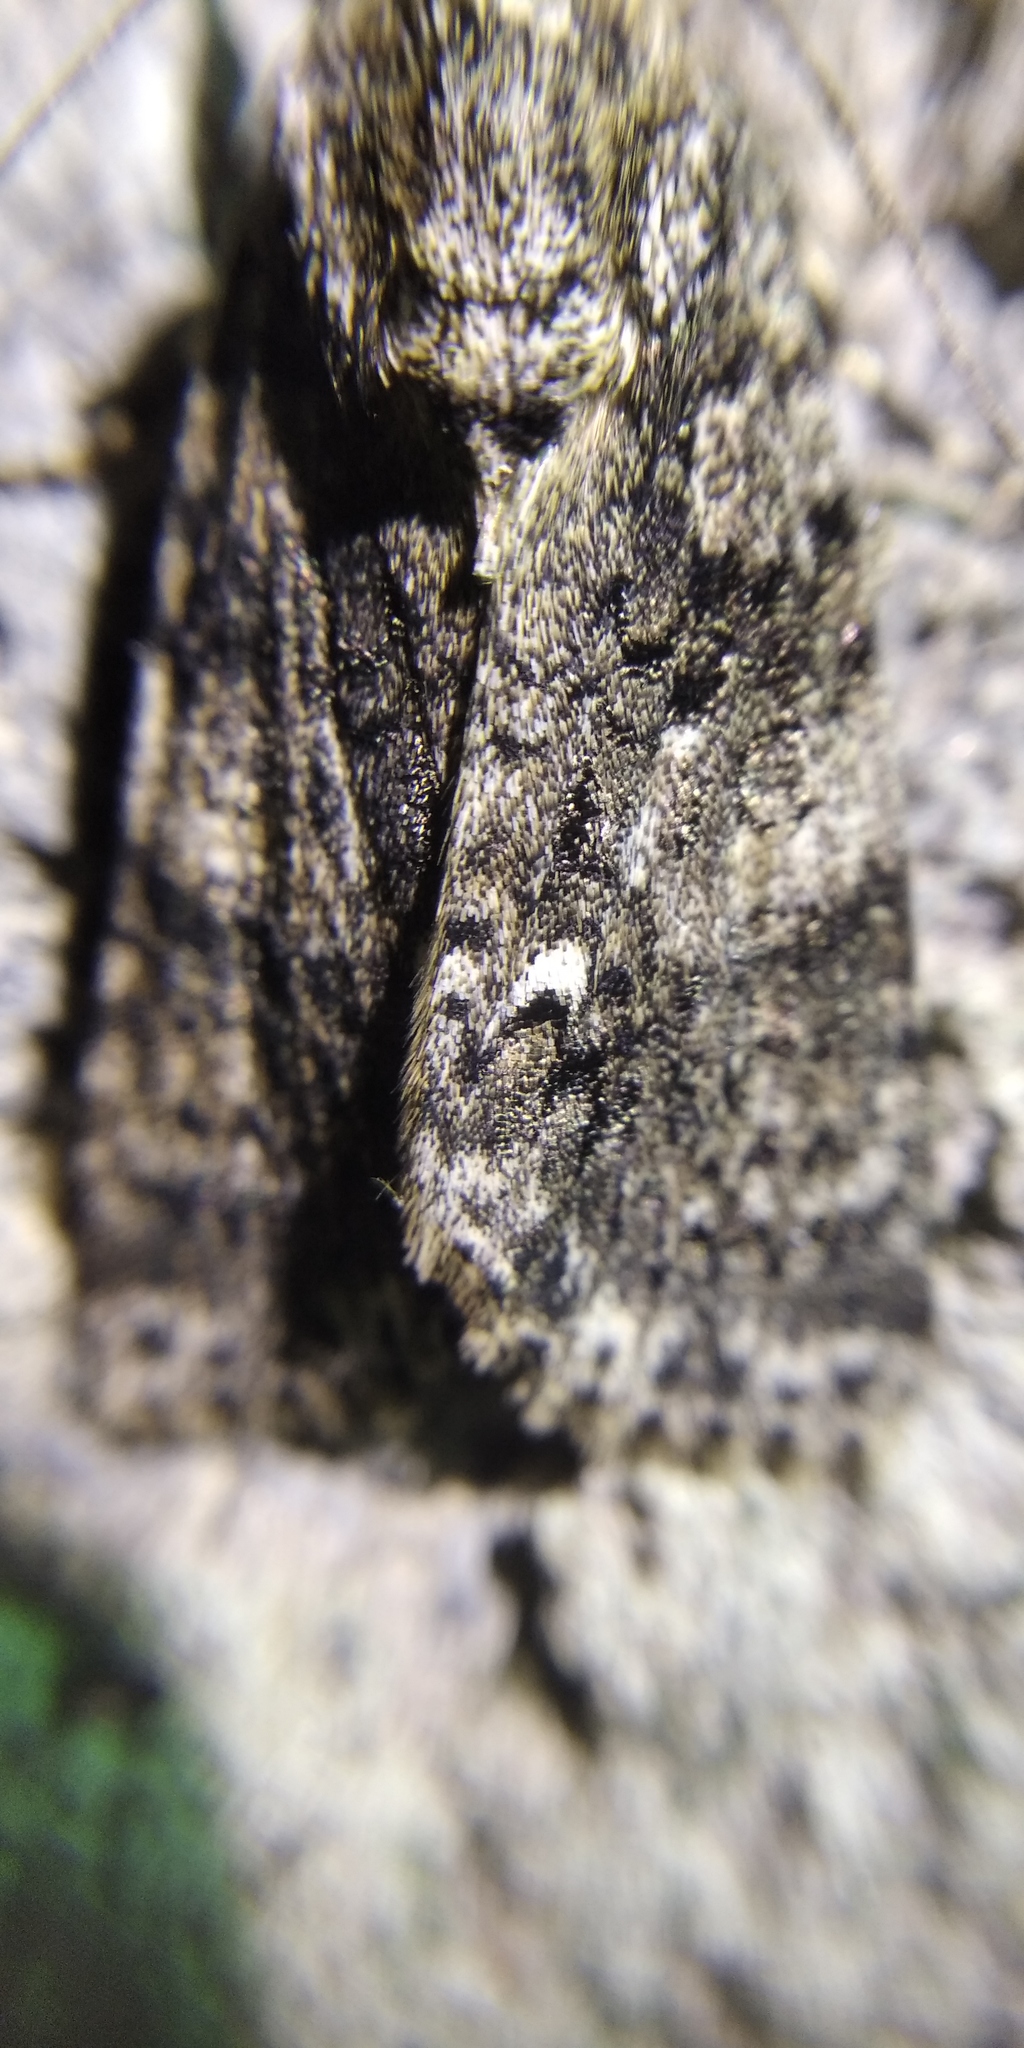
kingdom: Animalia
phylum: Arthropoda
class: Insecta
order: Lepidoptera
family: Noctuidae
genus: Acronicta
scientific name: Acronicta rumicis
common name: Knot grass
